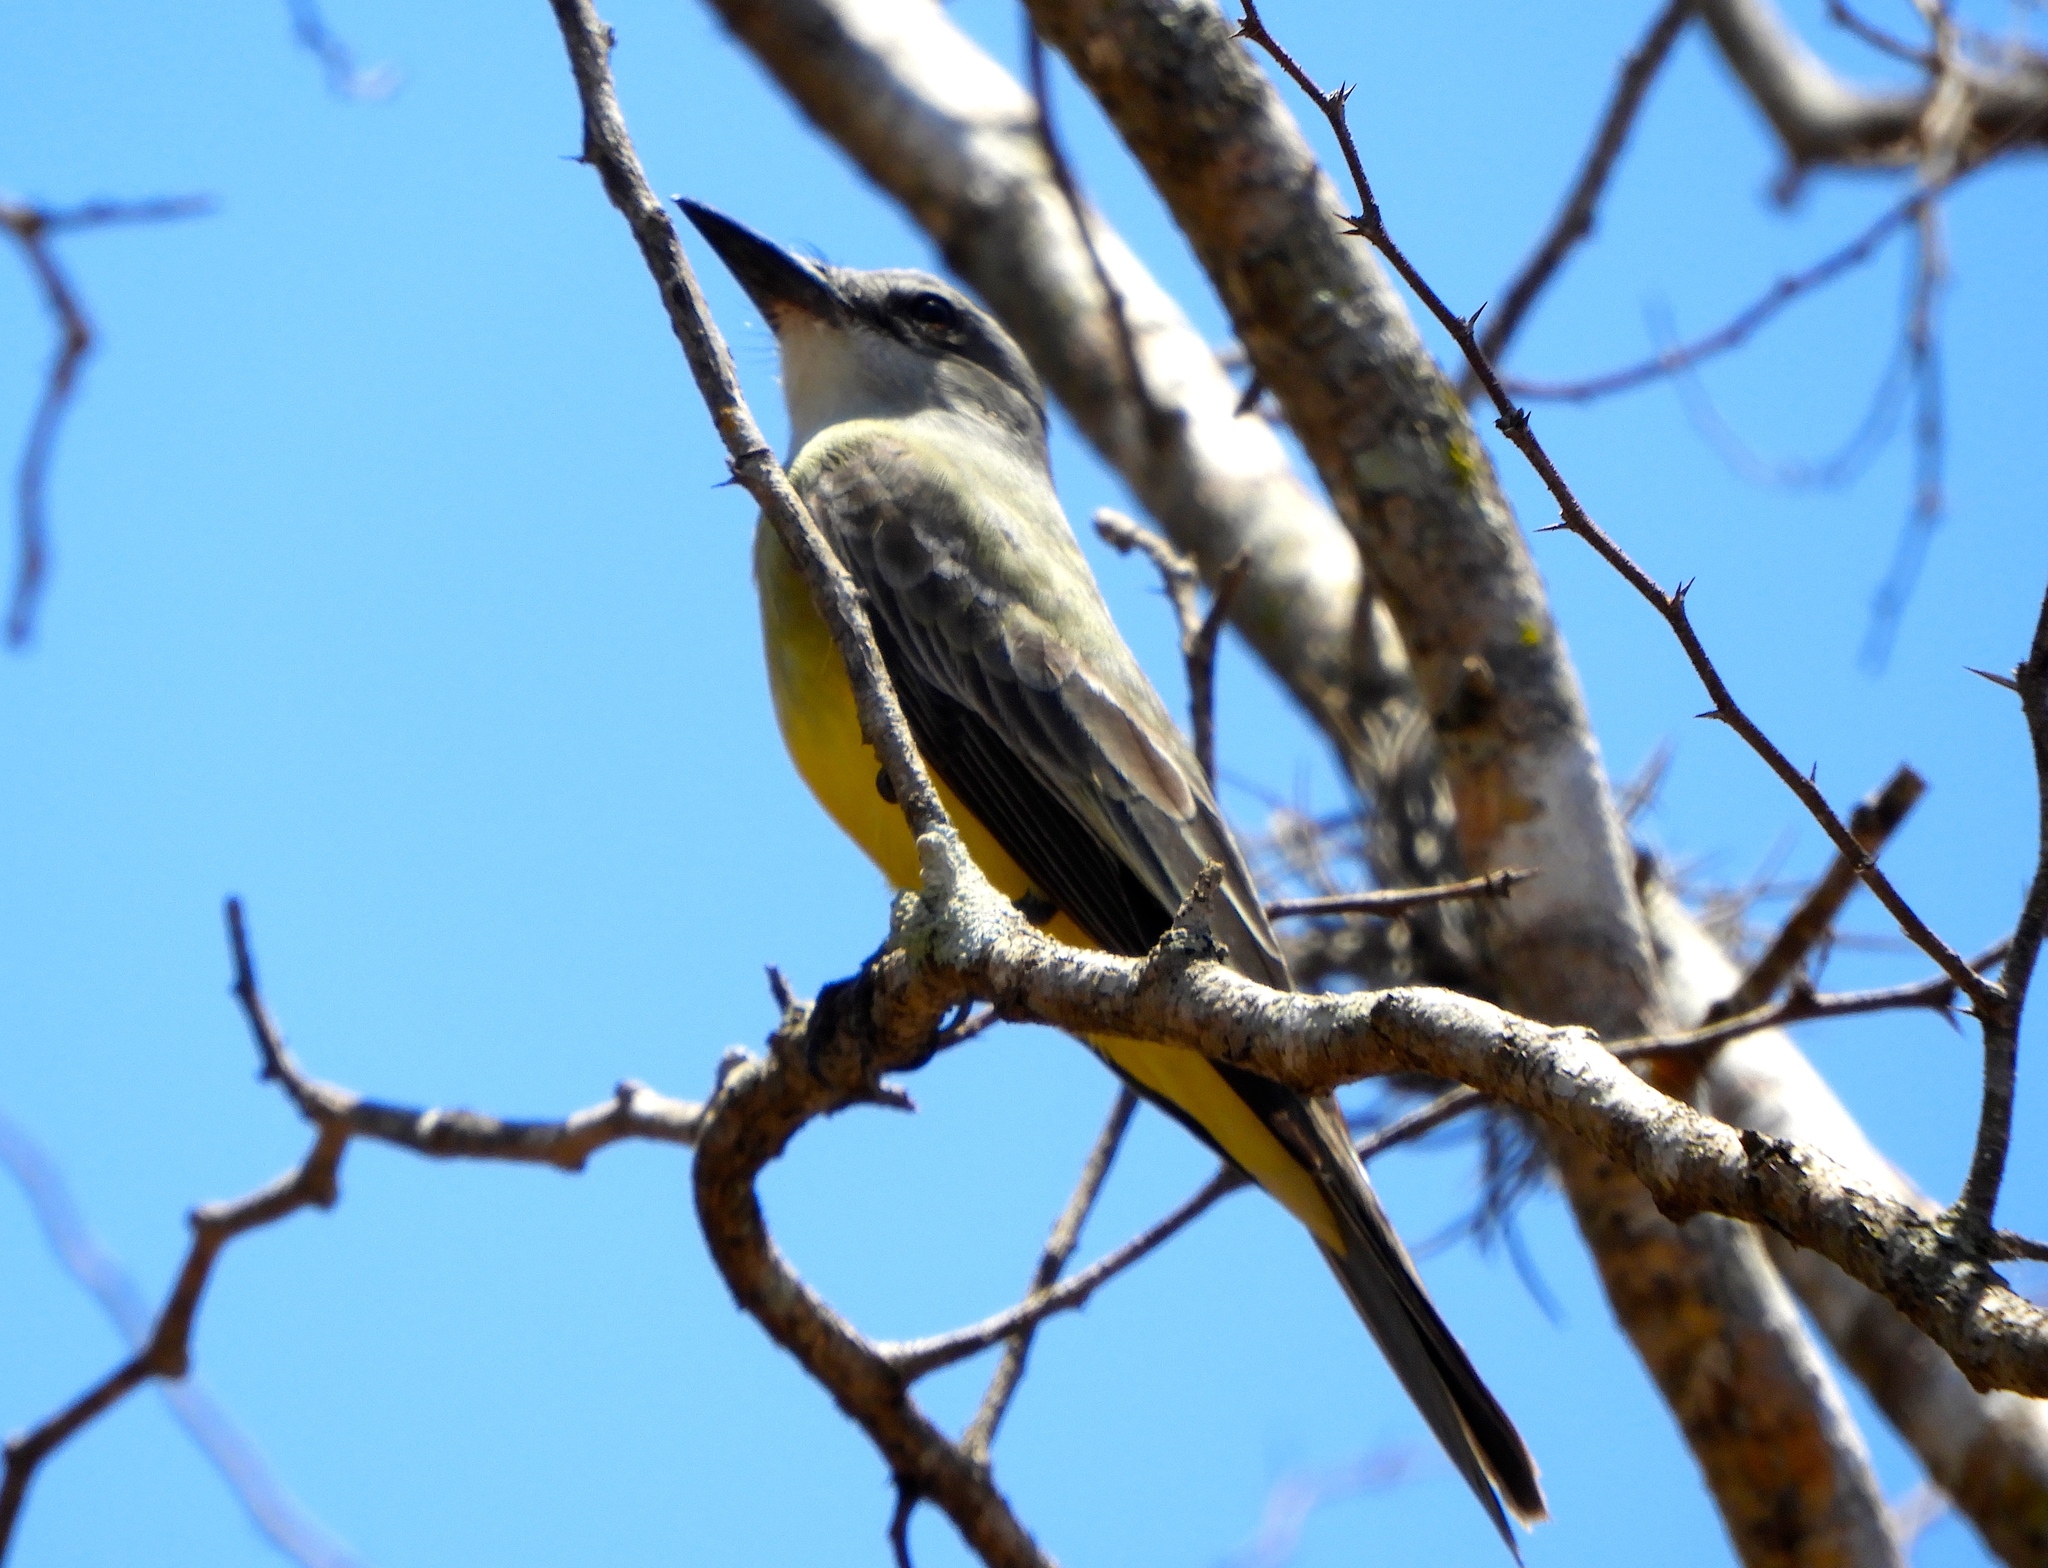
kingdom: Animalia
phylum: Chordata
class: Aves
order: Passeriformes
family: Tyrannidae
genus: Tyrannus
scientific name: Tyrannus melancholicus
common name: Tropical kingbird
